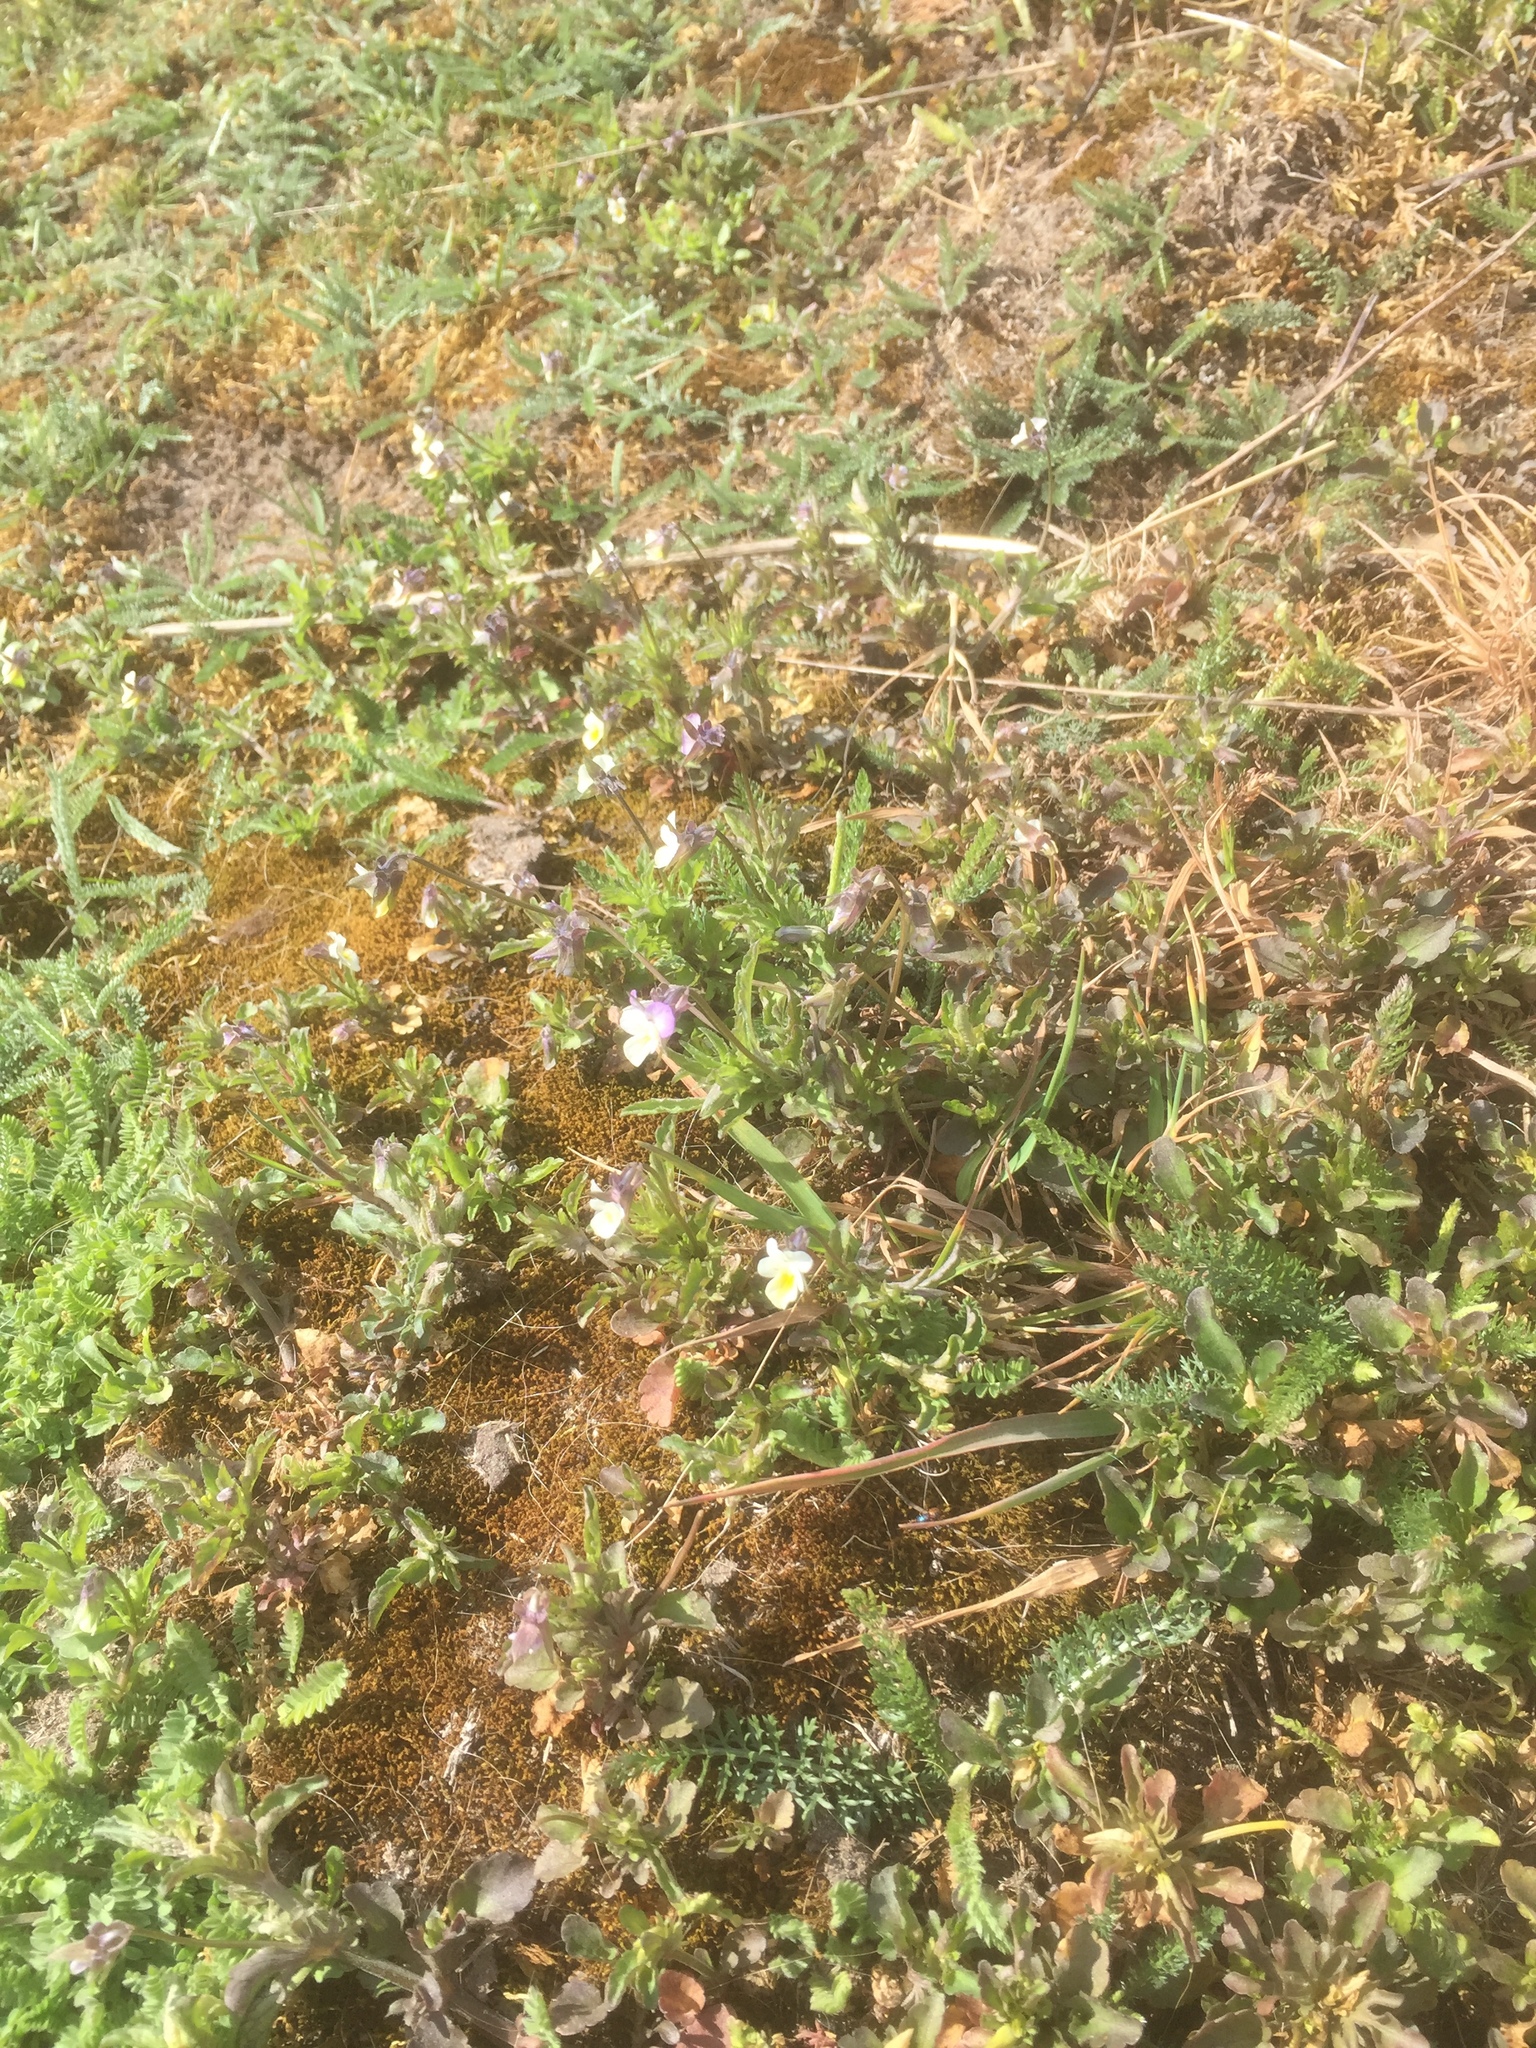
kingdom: Plantae
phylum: Tracheophyta
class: Magnoliopsida
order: Malpighiales
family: Violaceae
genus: Viola
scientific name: Viola arvensis
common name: Field pansy
